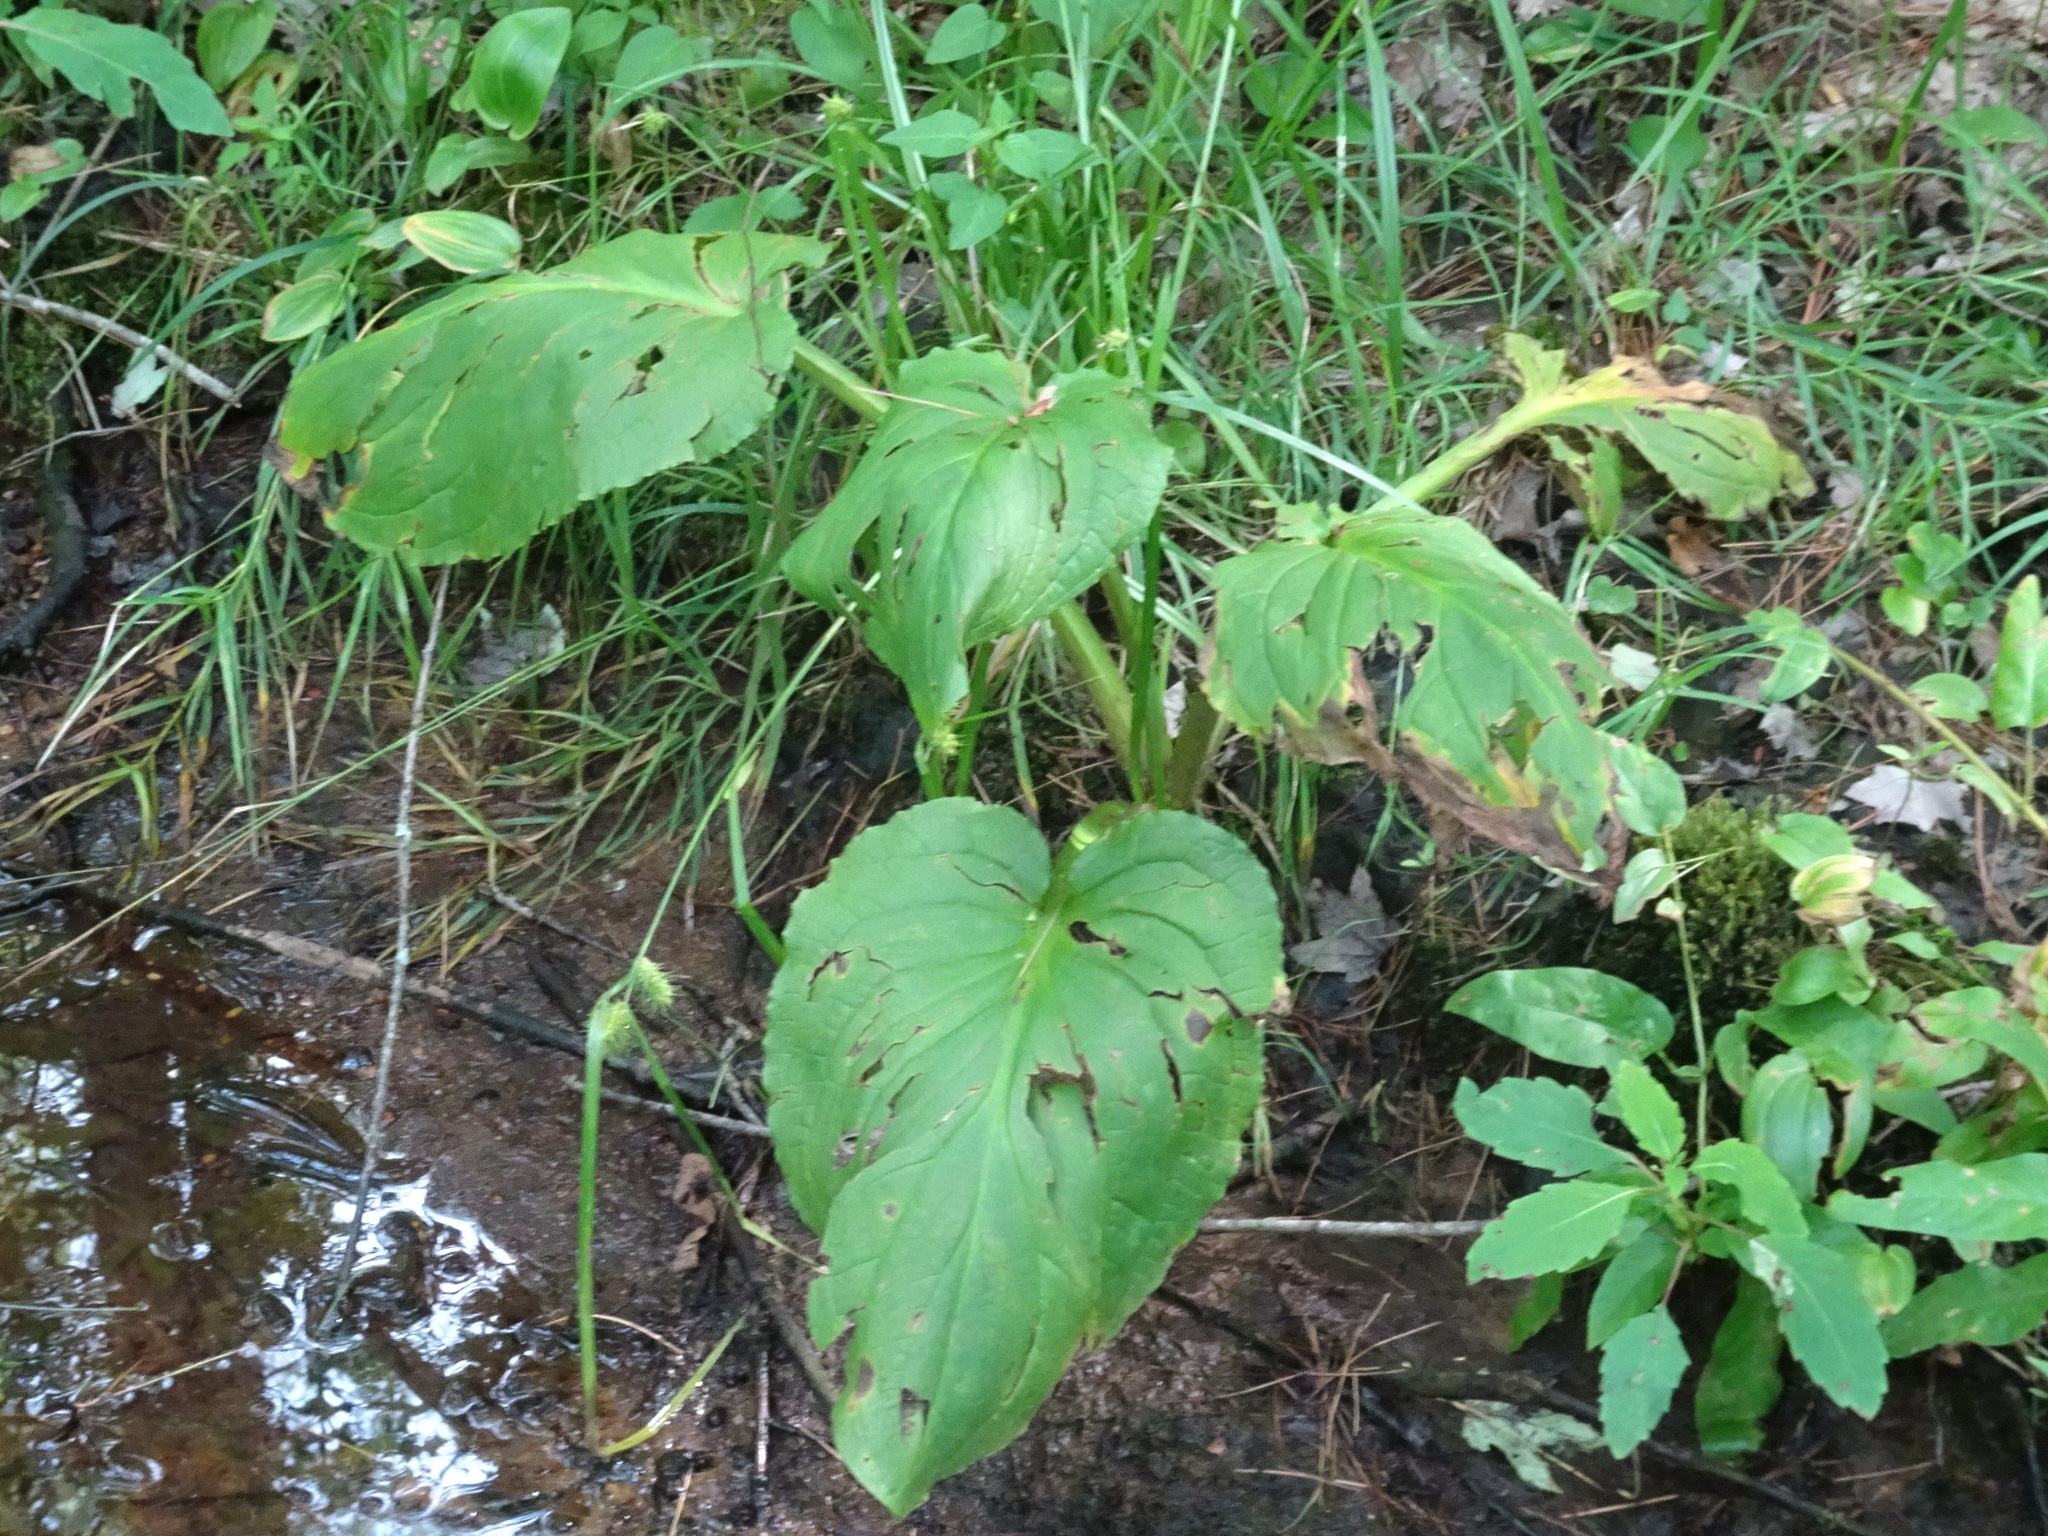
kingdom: Plantae
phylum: Tracheophyta
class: Liliopsida
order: Alismatales
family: Araceae
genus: Symplocarpus
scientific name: Symplocarpus foetidus
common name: Eastern skunk cabbage
